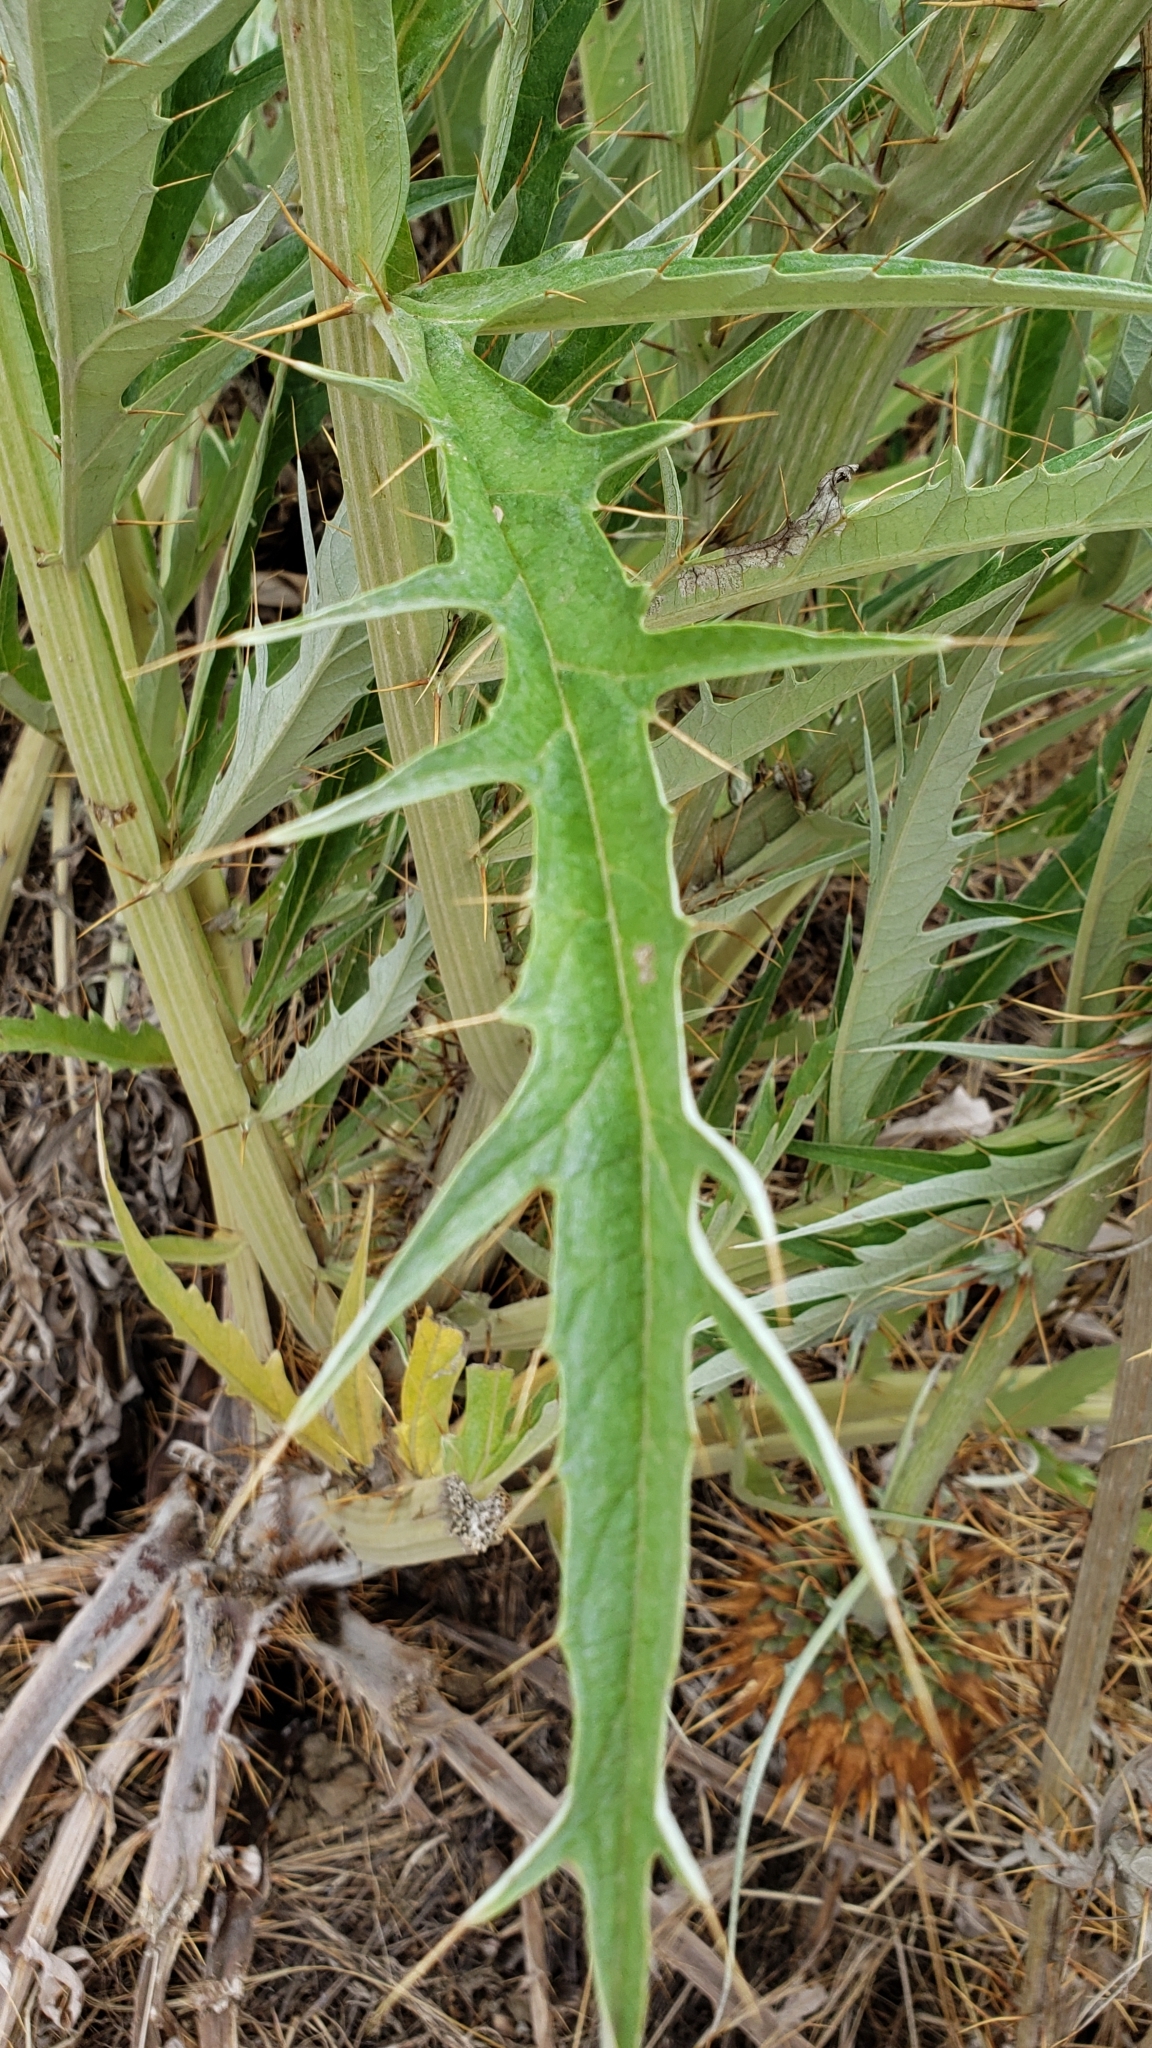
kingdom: Plantae
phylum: Tracheophyta
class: Magnoliopsida
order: Asterales
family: Asteraceae
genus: Cynara
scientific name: Cynara cardunculus
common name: Globe artichoke
